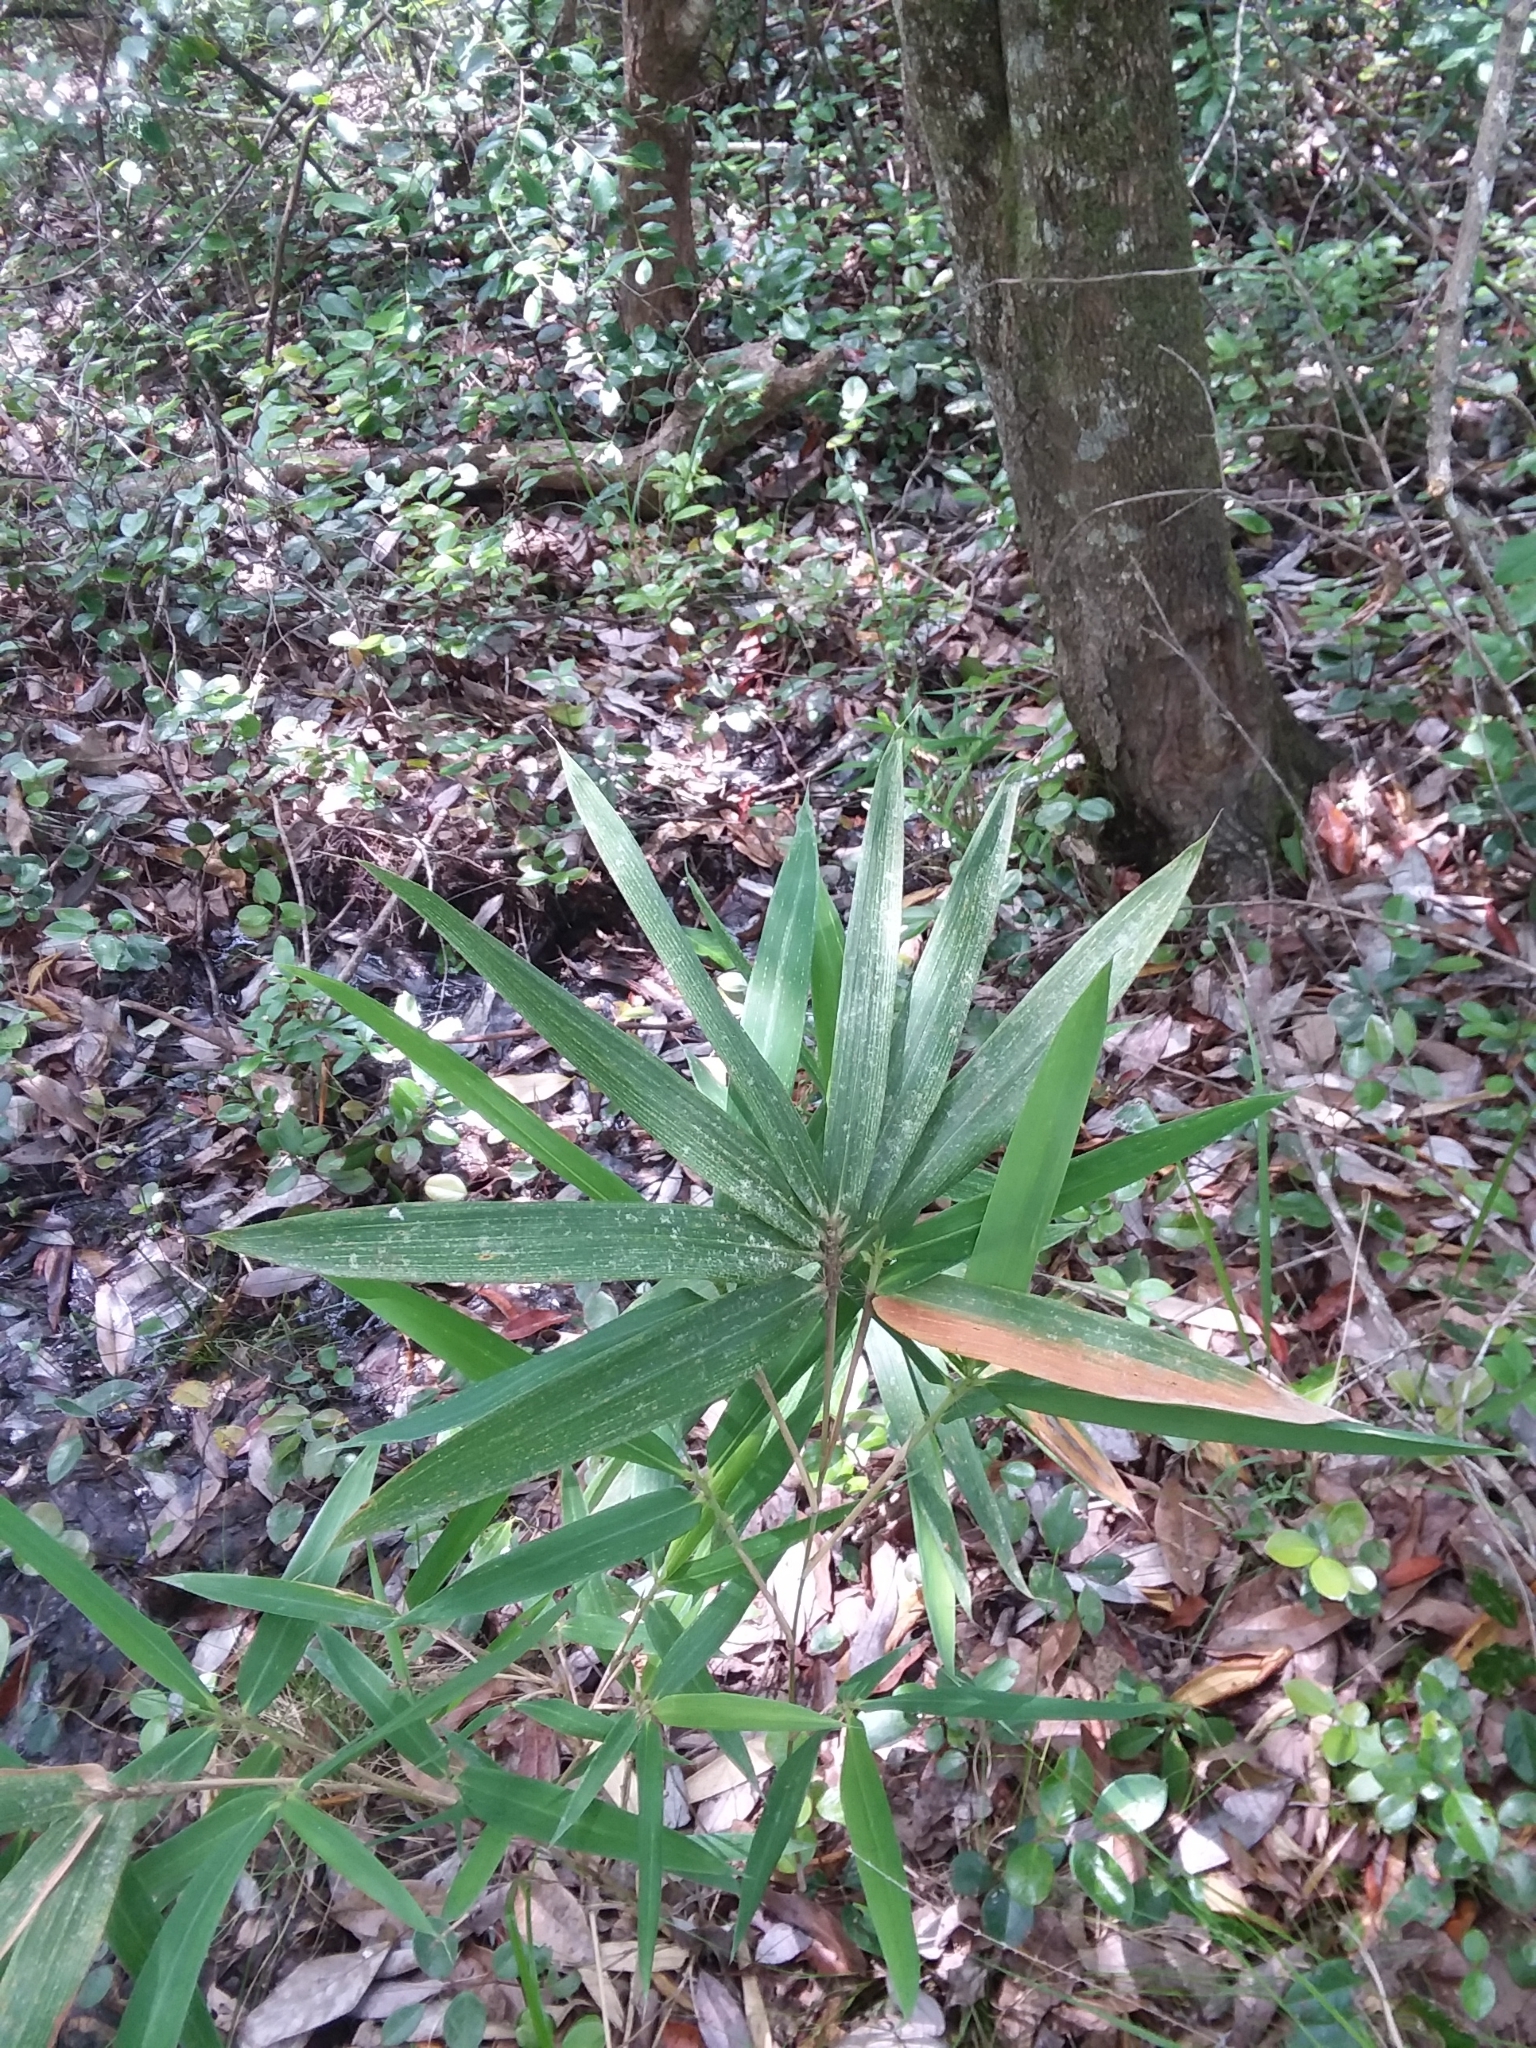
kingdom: Plantae
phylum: Tracheophyta
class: Liliopsida
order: Poales
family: Poaceae
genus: Arundinaria
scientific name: Arundinaria tecta
